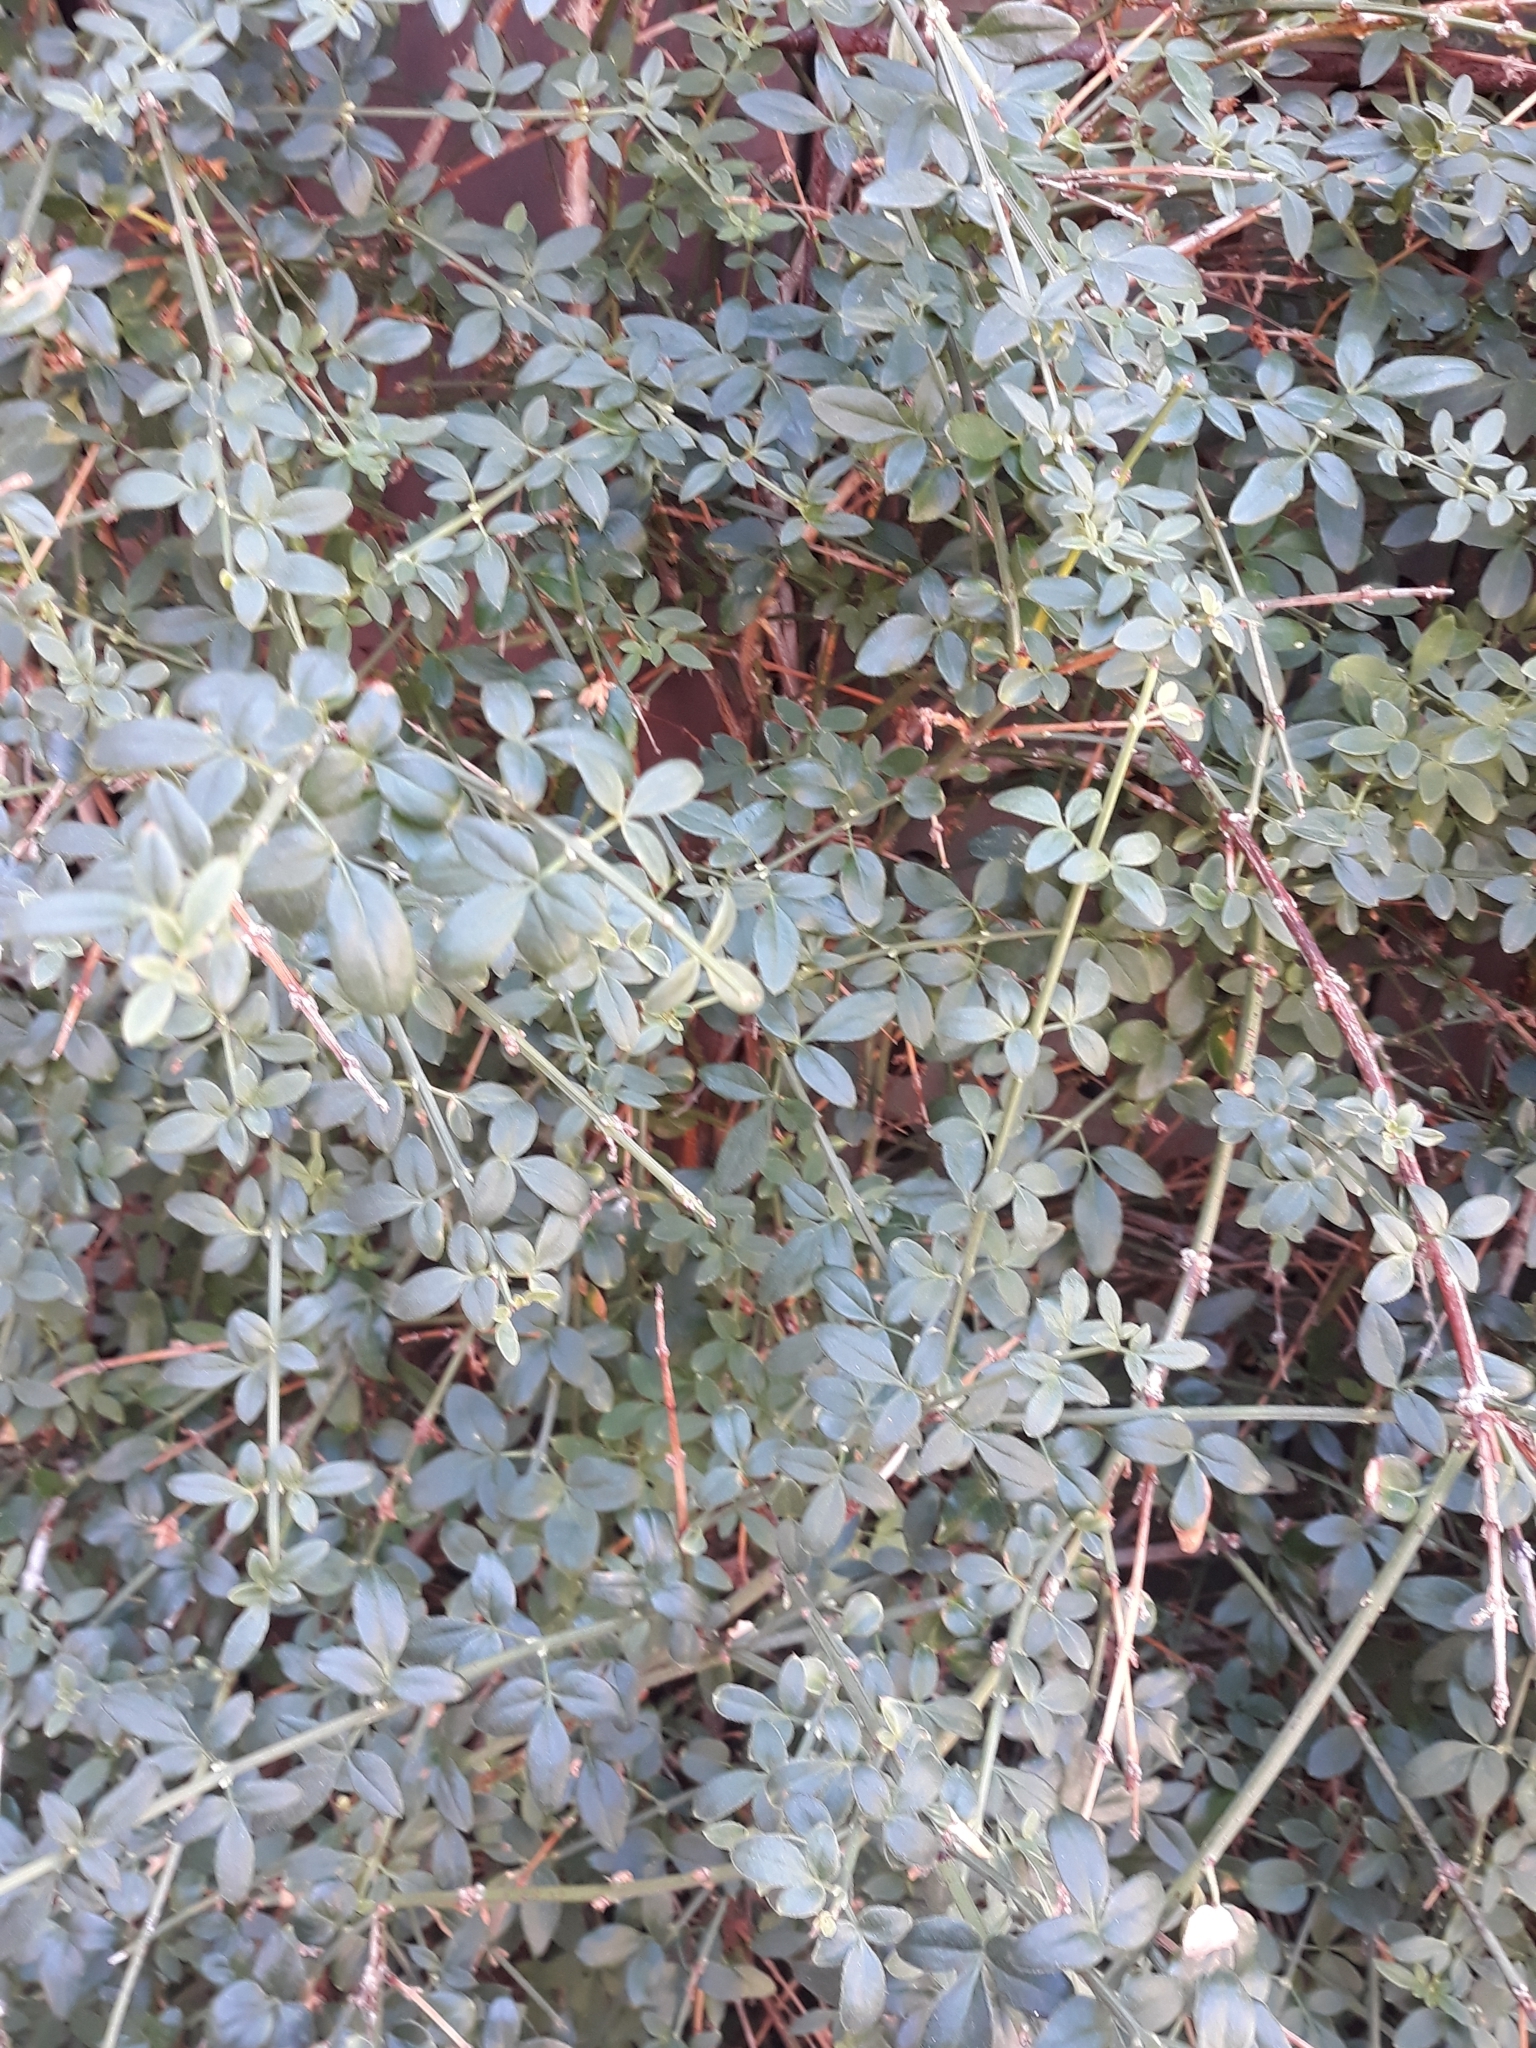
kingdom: Plantae
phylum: Tracheophyta
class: Magnoliopsida
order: Lamiales
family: Oleaceae
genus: Chrysojasminum
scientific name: Chrysojasminum fruticans
